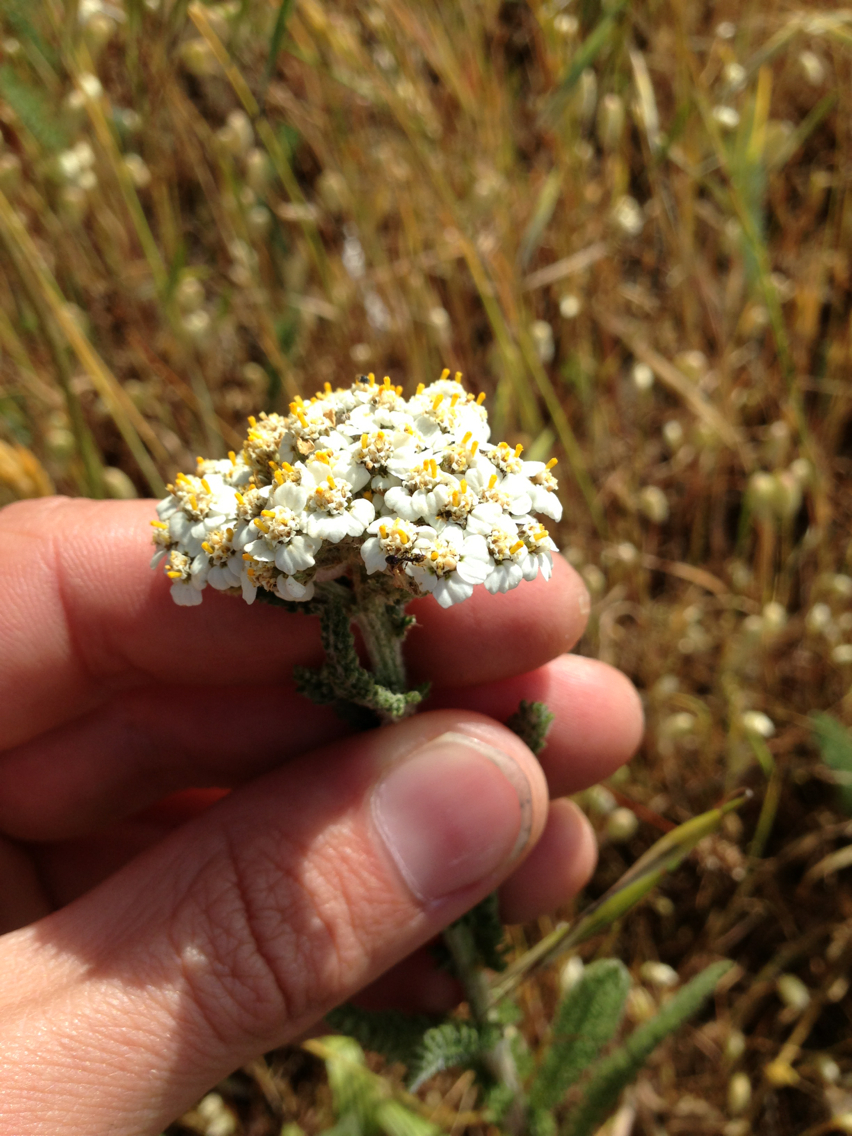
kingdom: Plantae
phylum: Tracheophyta
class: Magnoliopsida
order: Asterales
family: Asteraceae
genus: Achillea
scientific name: Achillea millefolium
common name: Yarrow
